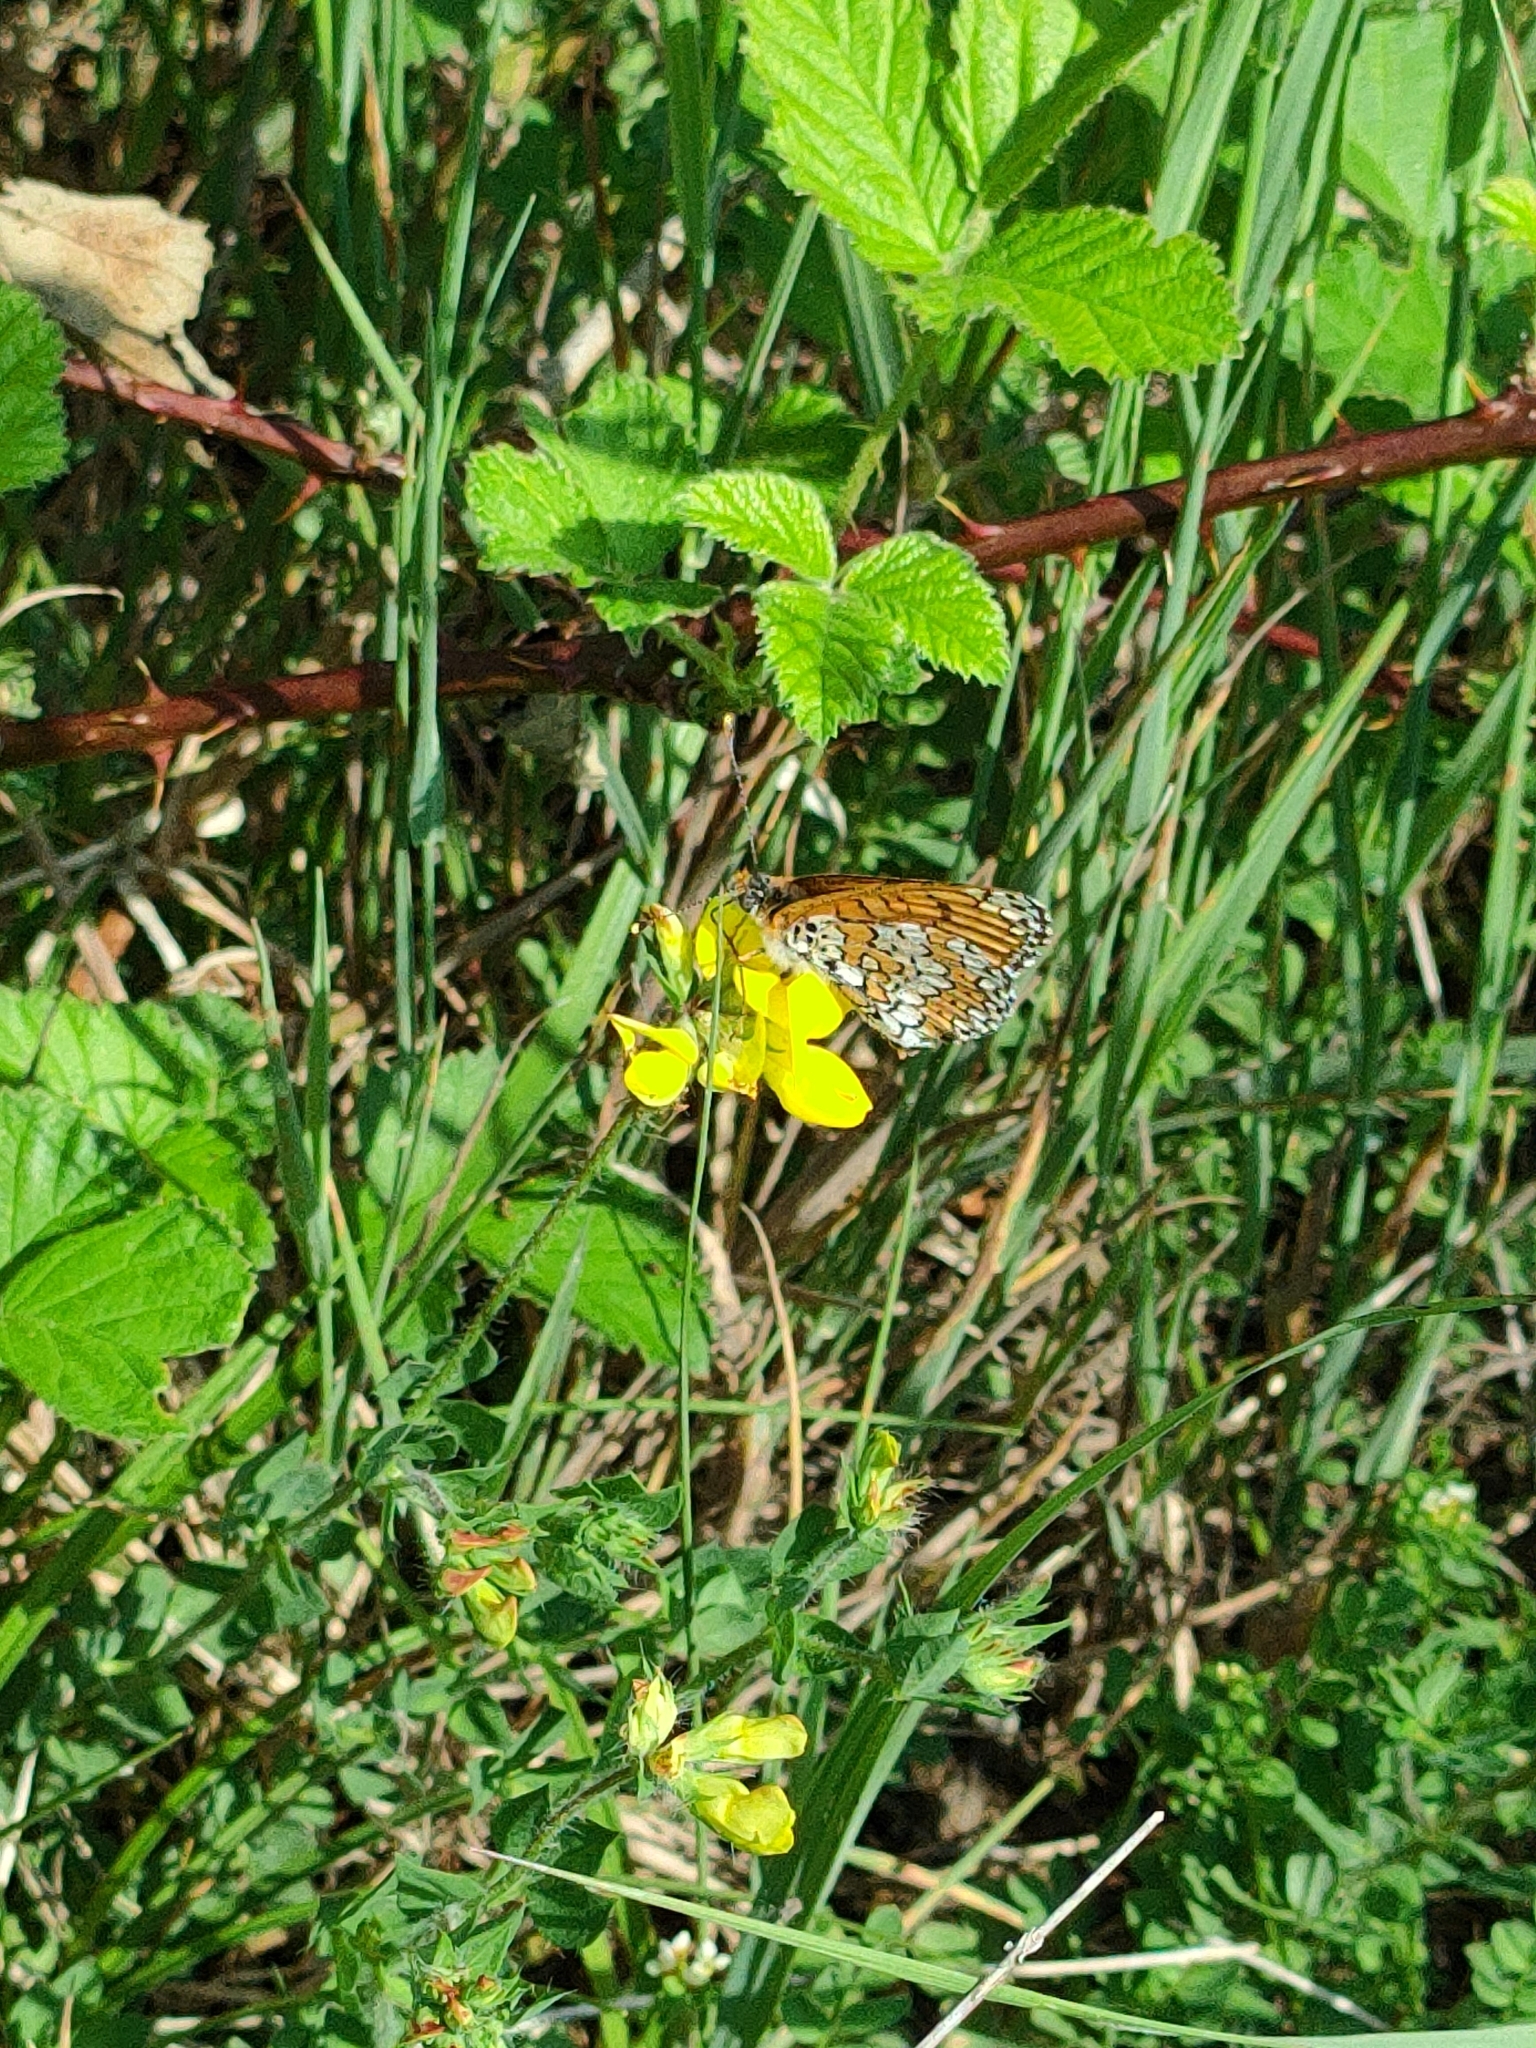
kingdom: Animalia
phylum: Arthropoda
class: Insecta
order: Lepidoptera
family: Nymphalidae
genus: Melitaea
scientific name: Melitaea cinxia
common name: Glanville fritillary
